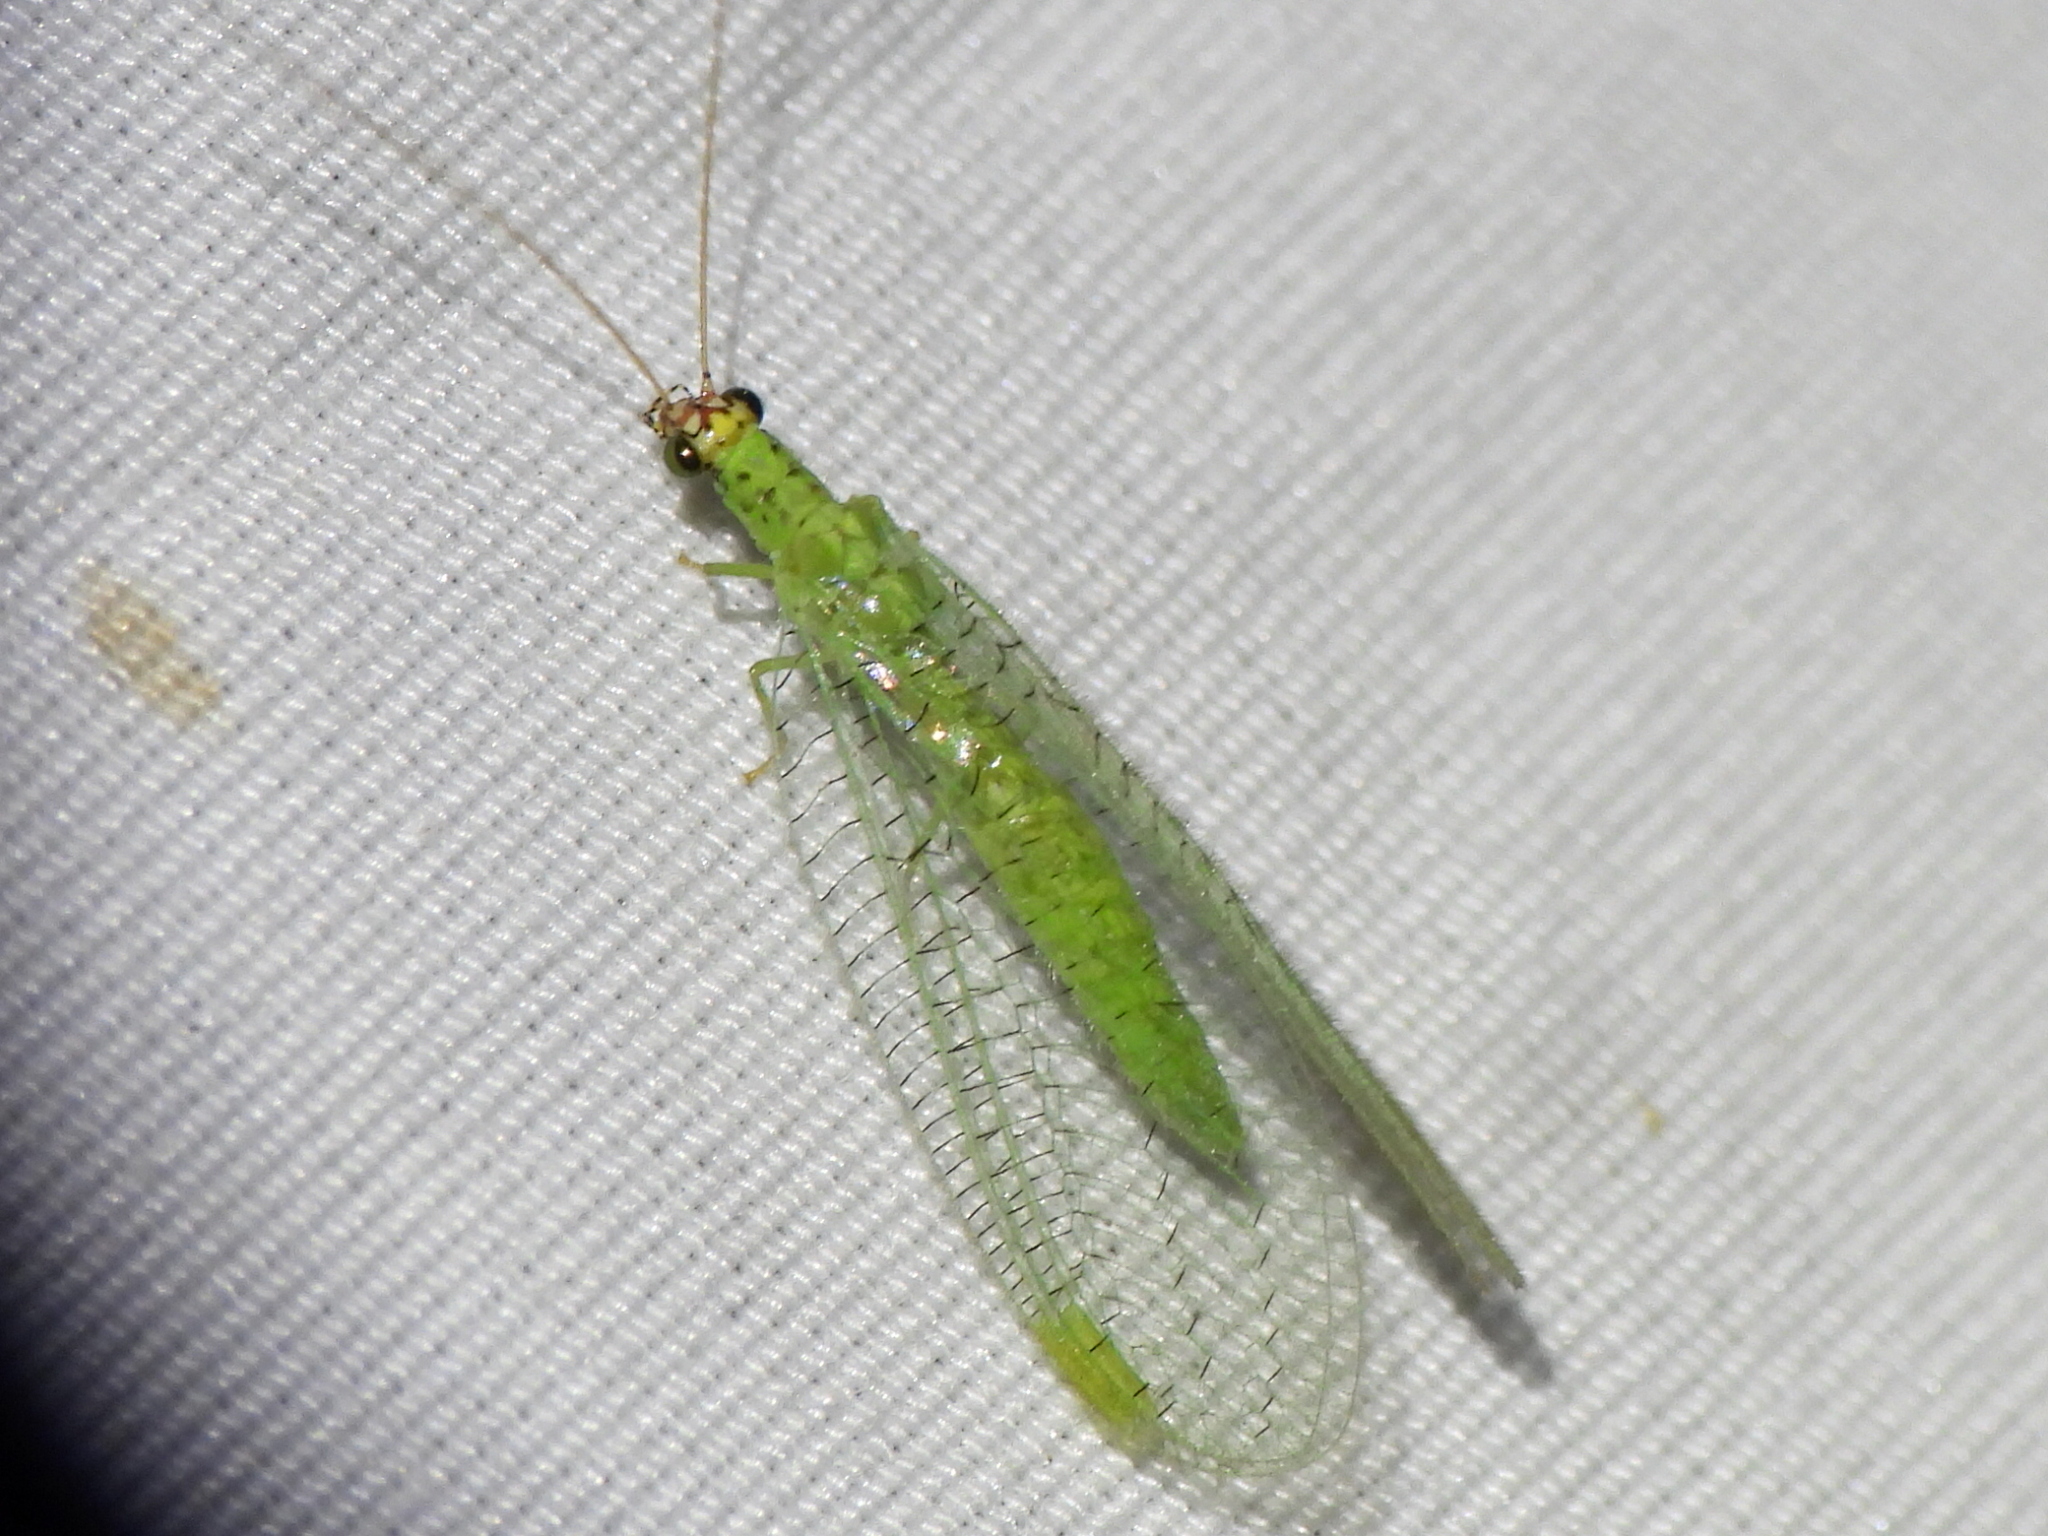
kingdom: Animalia
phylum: Arthropoda
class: Insecta
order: Neuroptera
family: Chrysopidae
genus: Chrysopa
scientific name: Chrysopa oculata
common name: Golden-eyed lacewing
